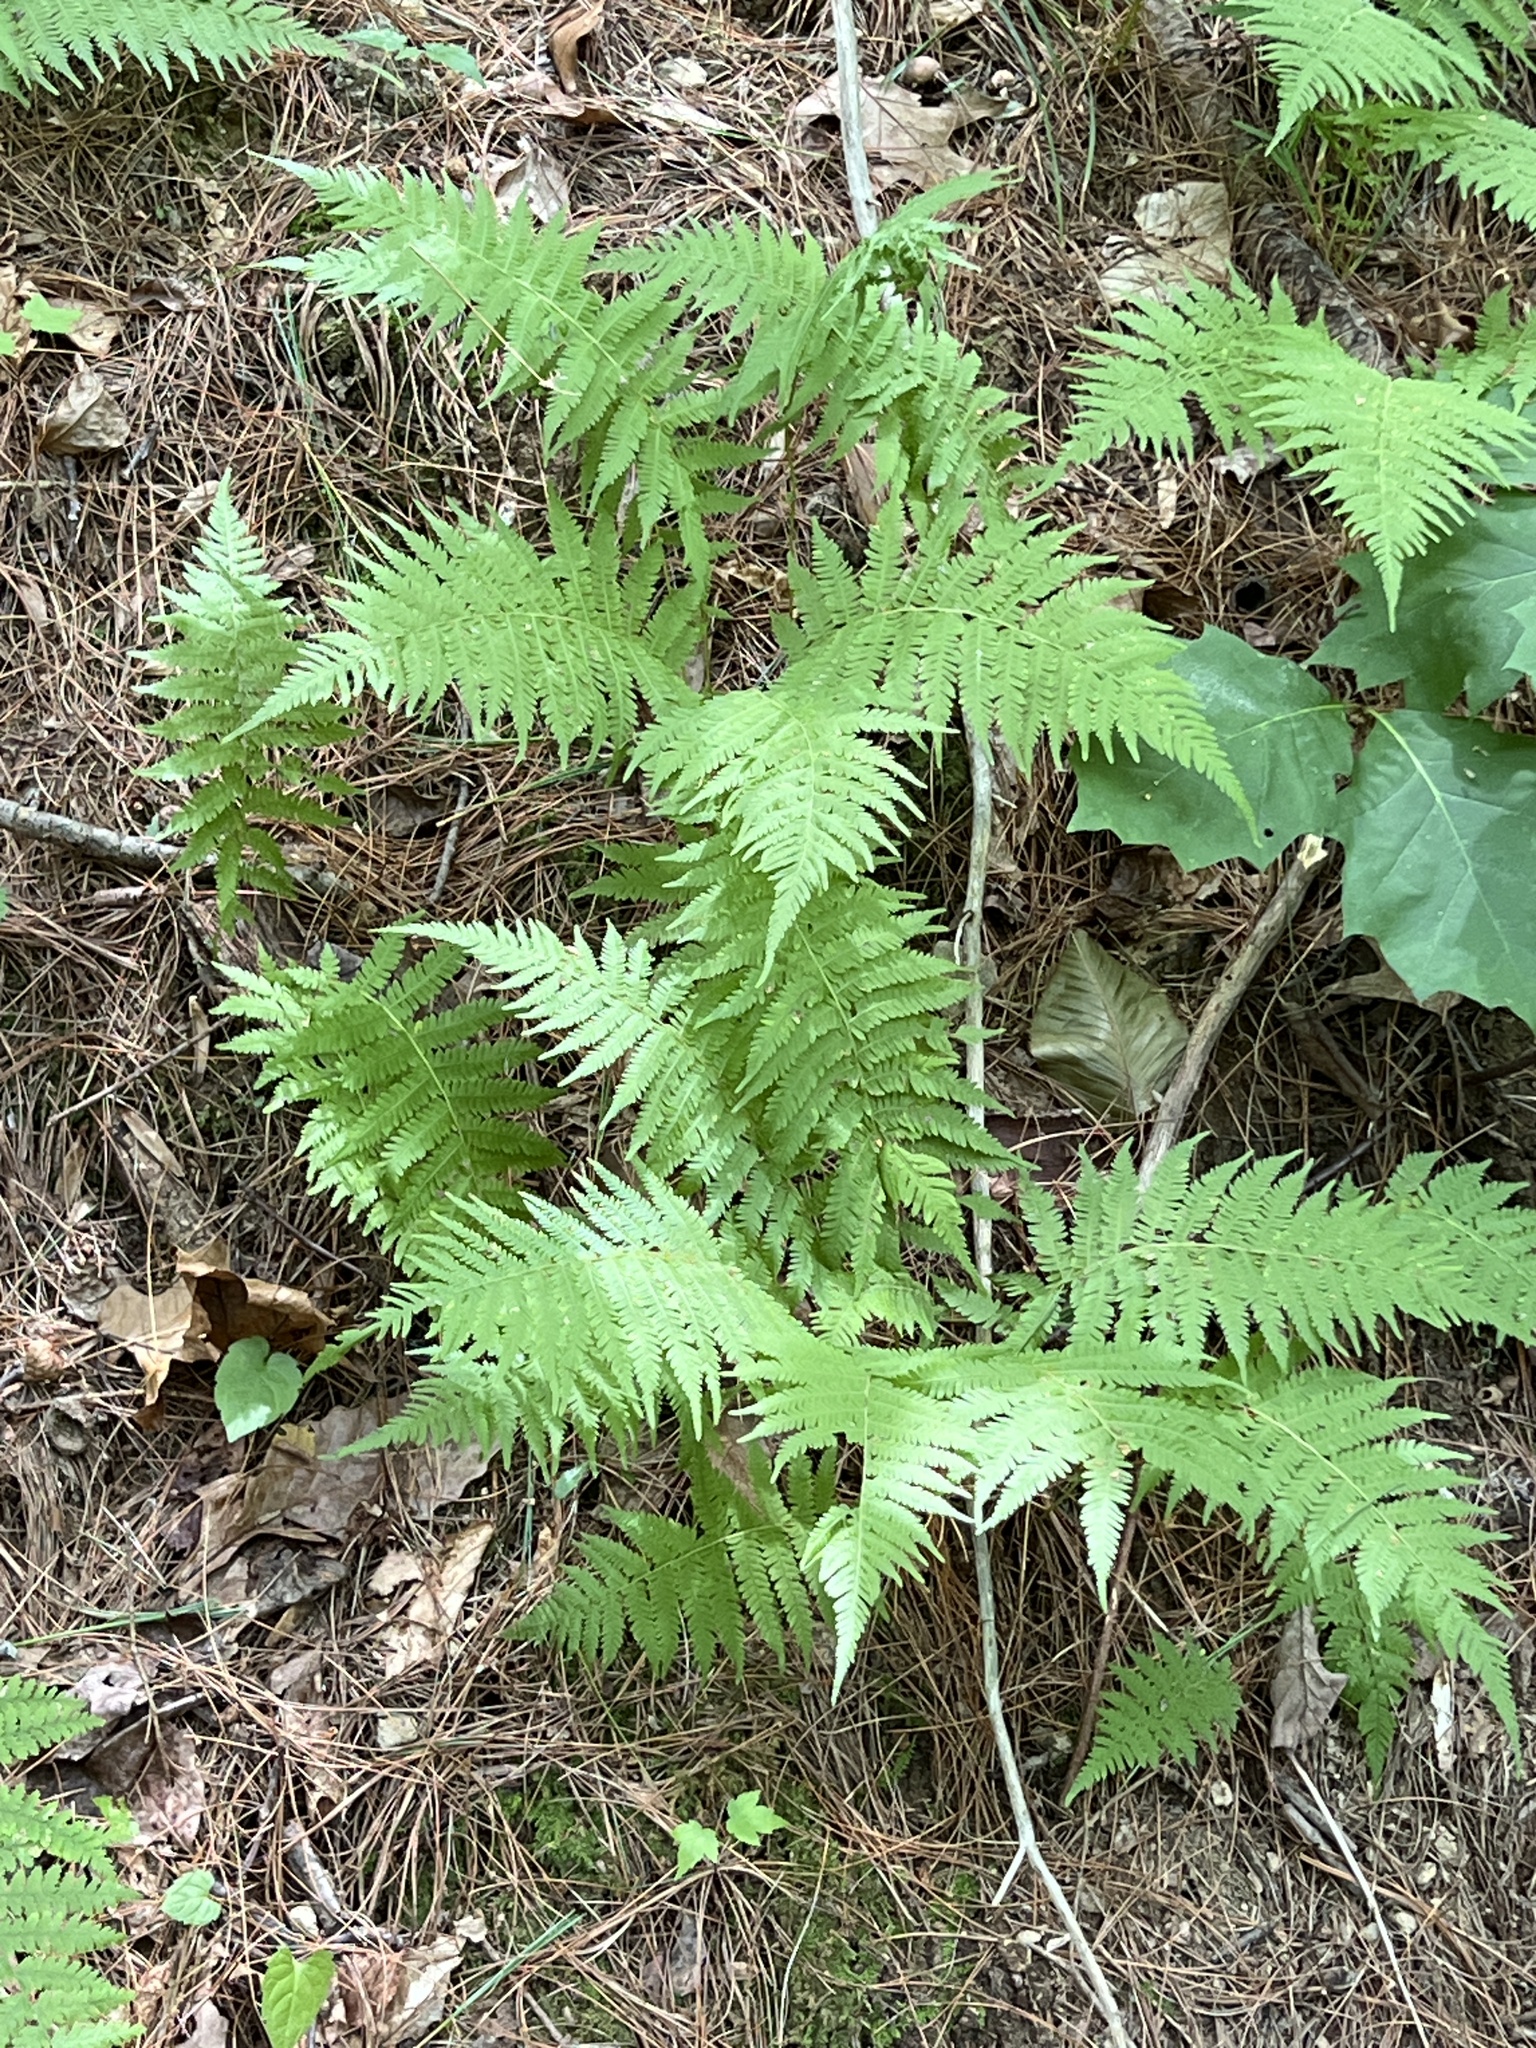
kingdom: Plantae
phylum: Tracheophyta
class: Polypodiopsida
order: Polypodiales
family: Dennstaedtiaceae
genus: Sitobolium
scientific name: Sitobolium punctilobum
